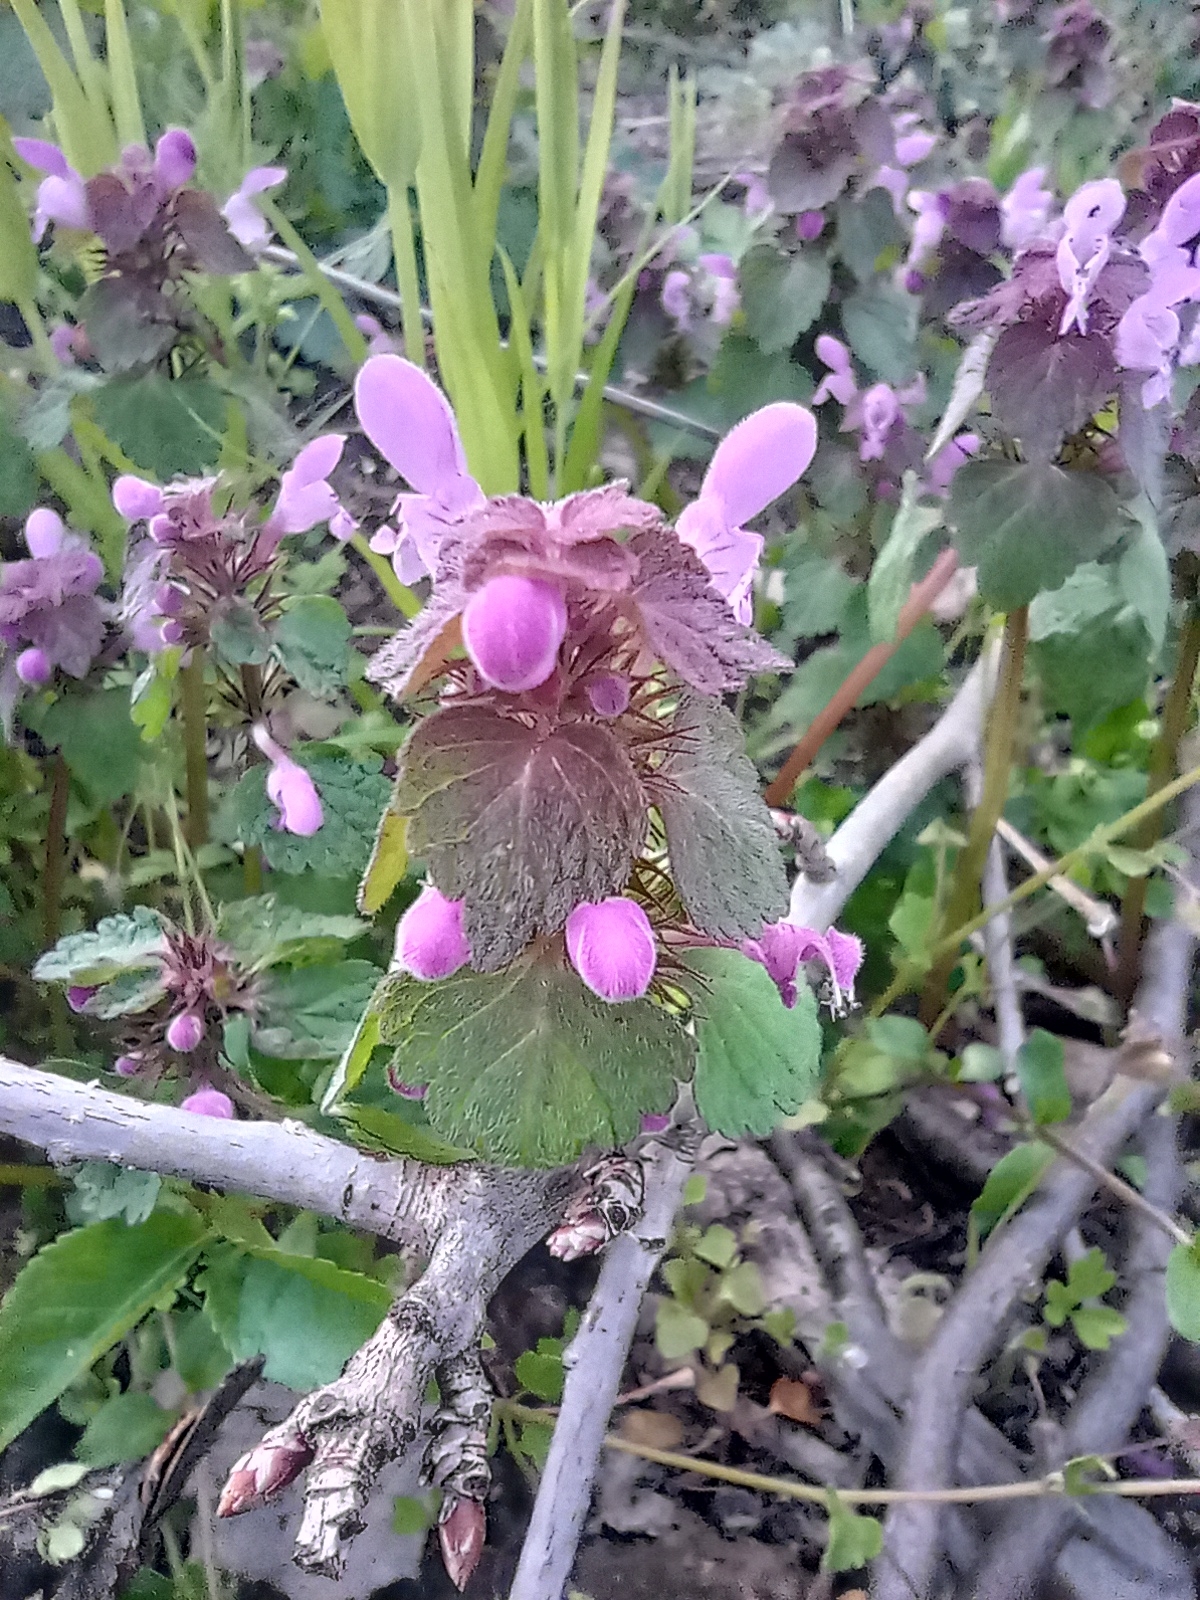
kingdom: Plantae
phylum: Tracheophyta
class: Magnoliopsida
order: Lamiales
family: Lamiaceae
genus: Lamium
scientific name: Lamium purpureum
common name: Red dead-nettle
